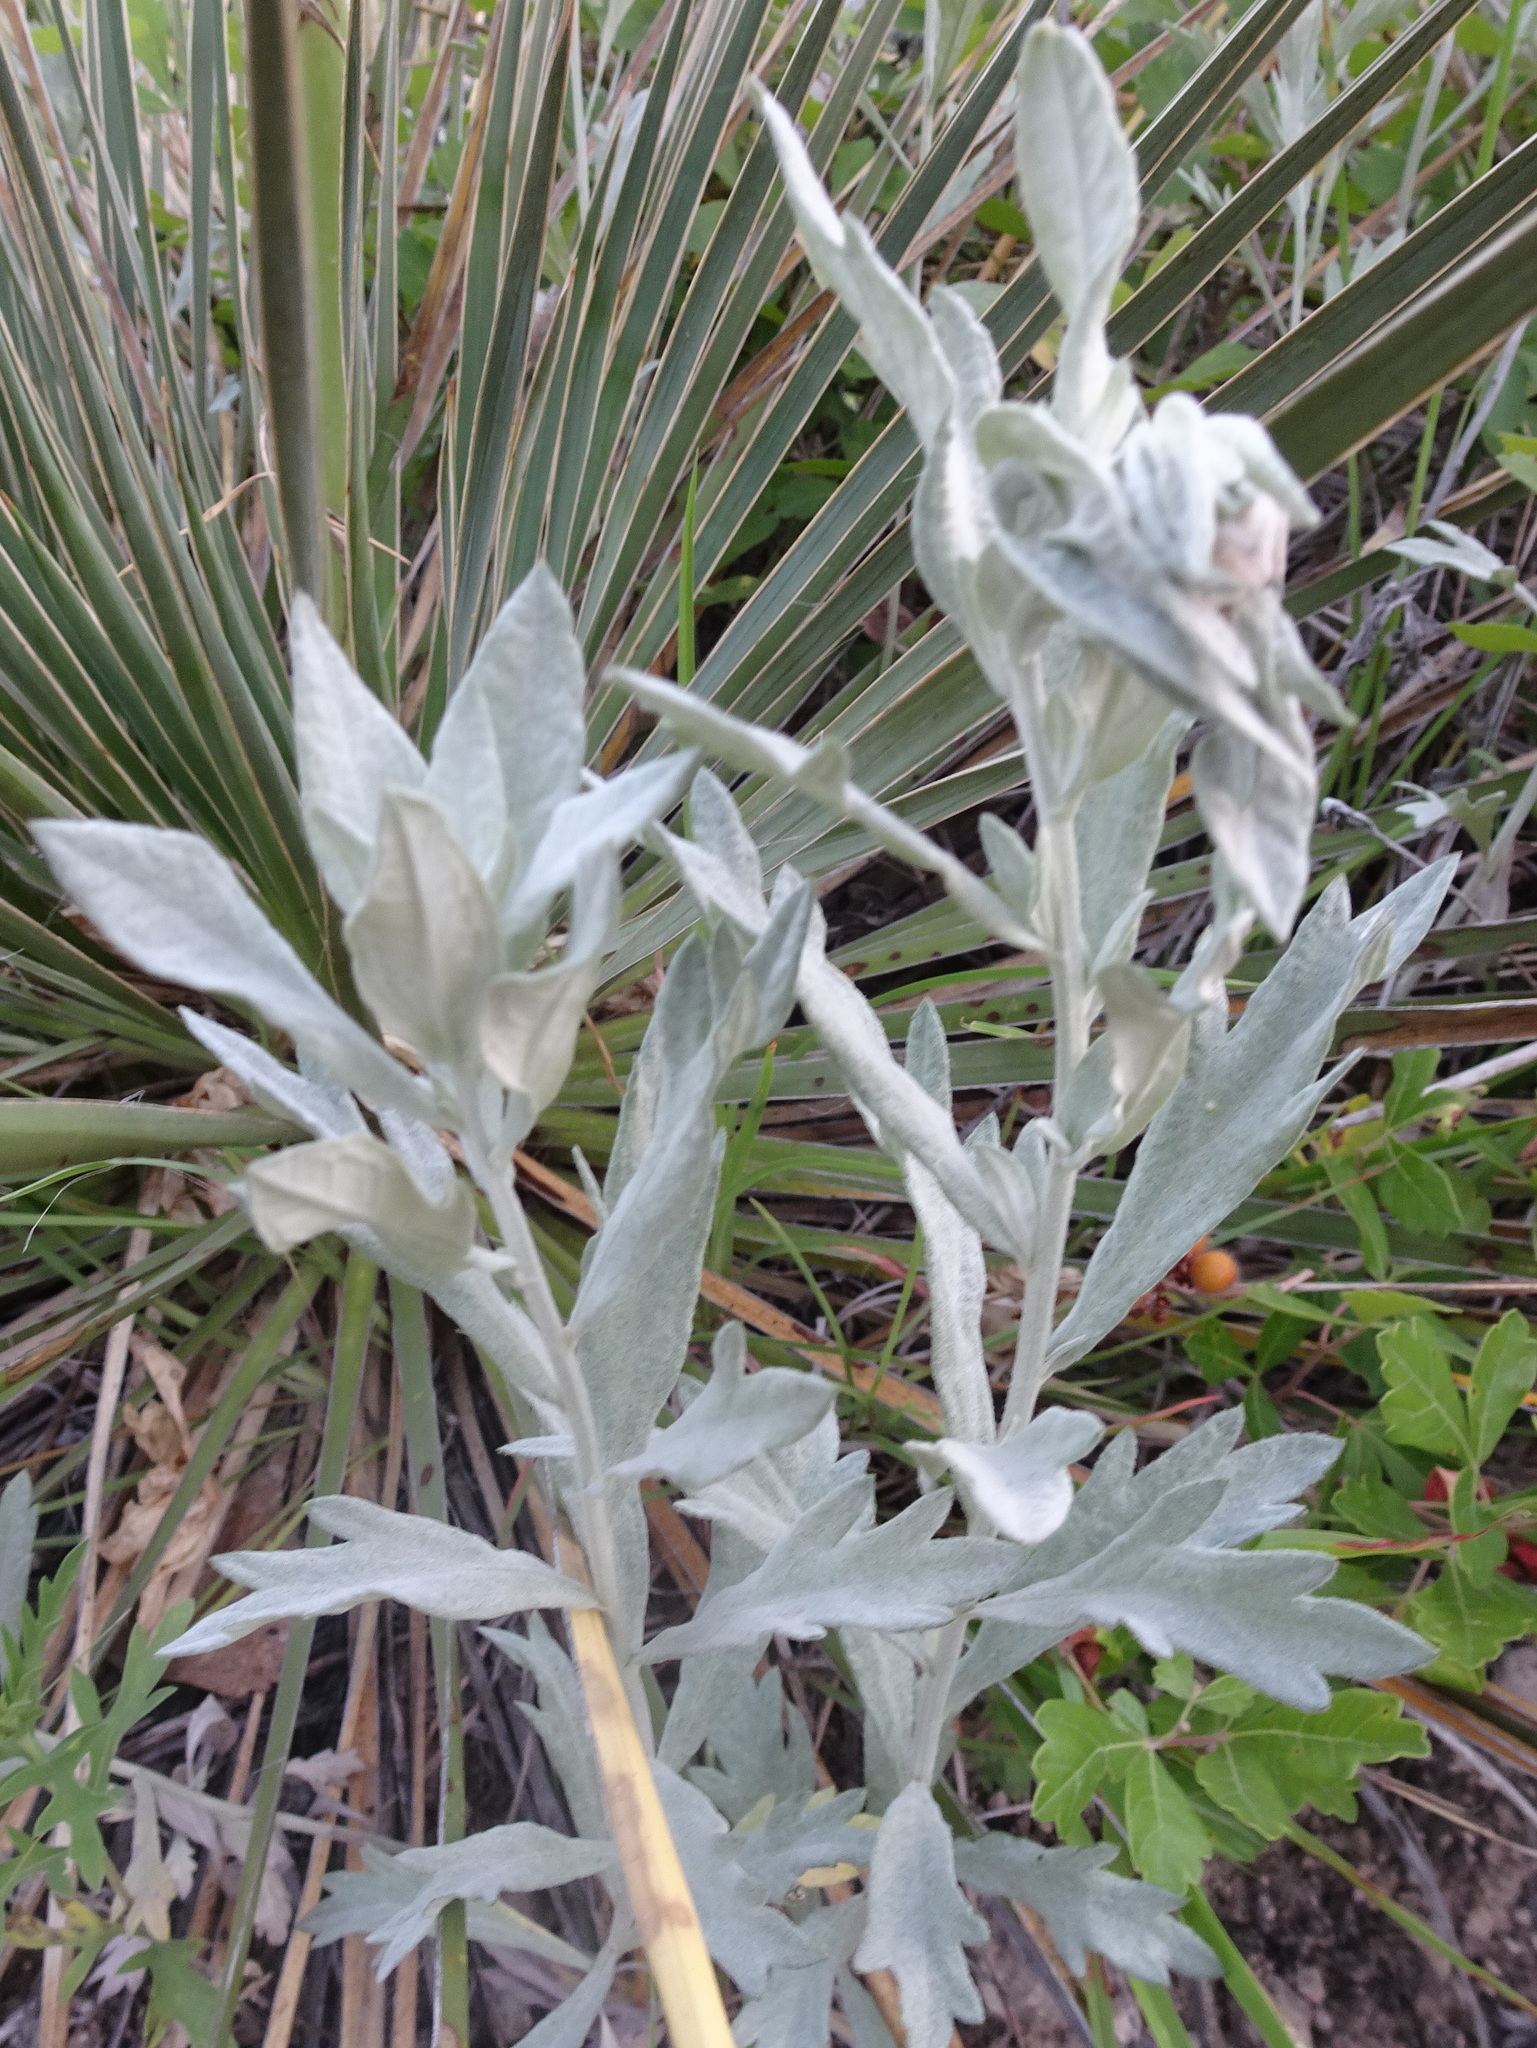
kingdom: Plantae
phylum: Tracheophyta
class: Magnoliopsida
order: Asterales
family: Asteraceae
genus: Artemisia
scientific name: Artemisia ludoviciana
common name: Western mugwort
